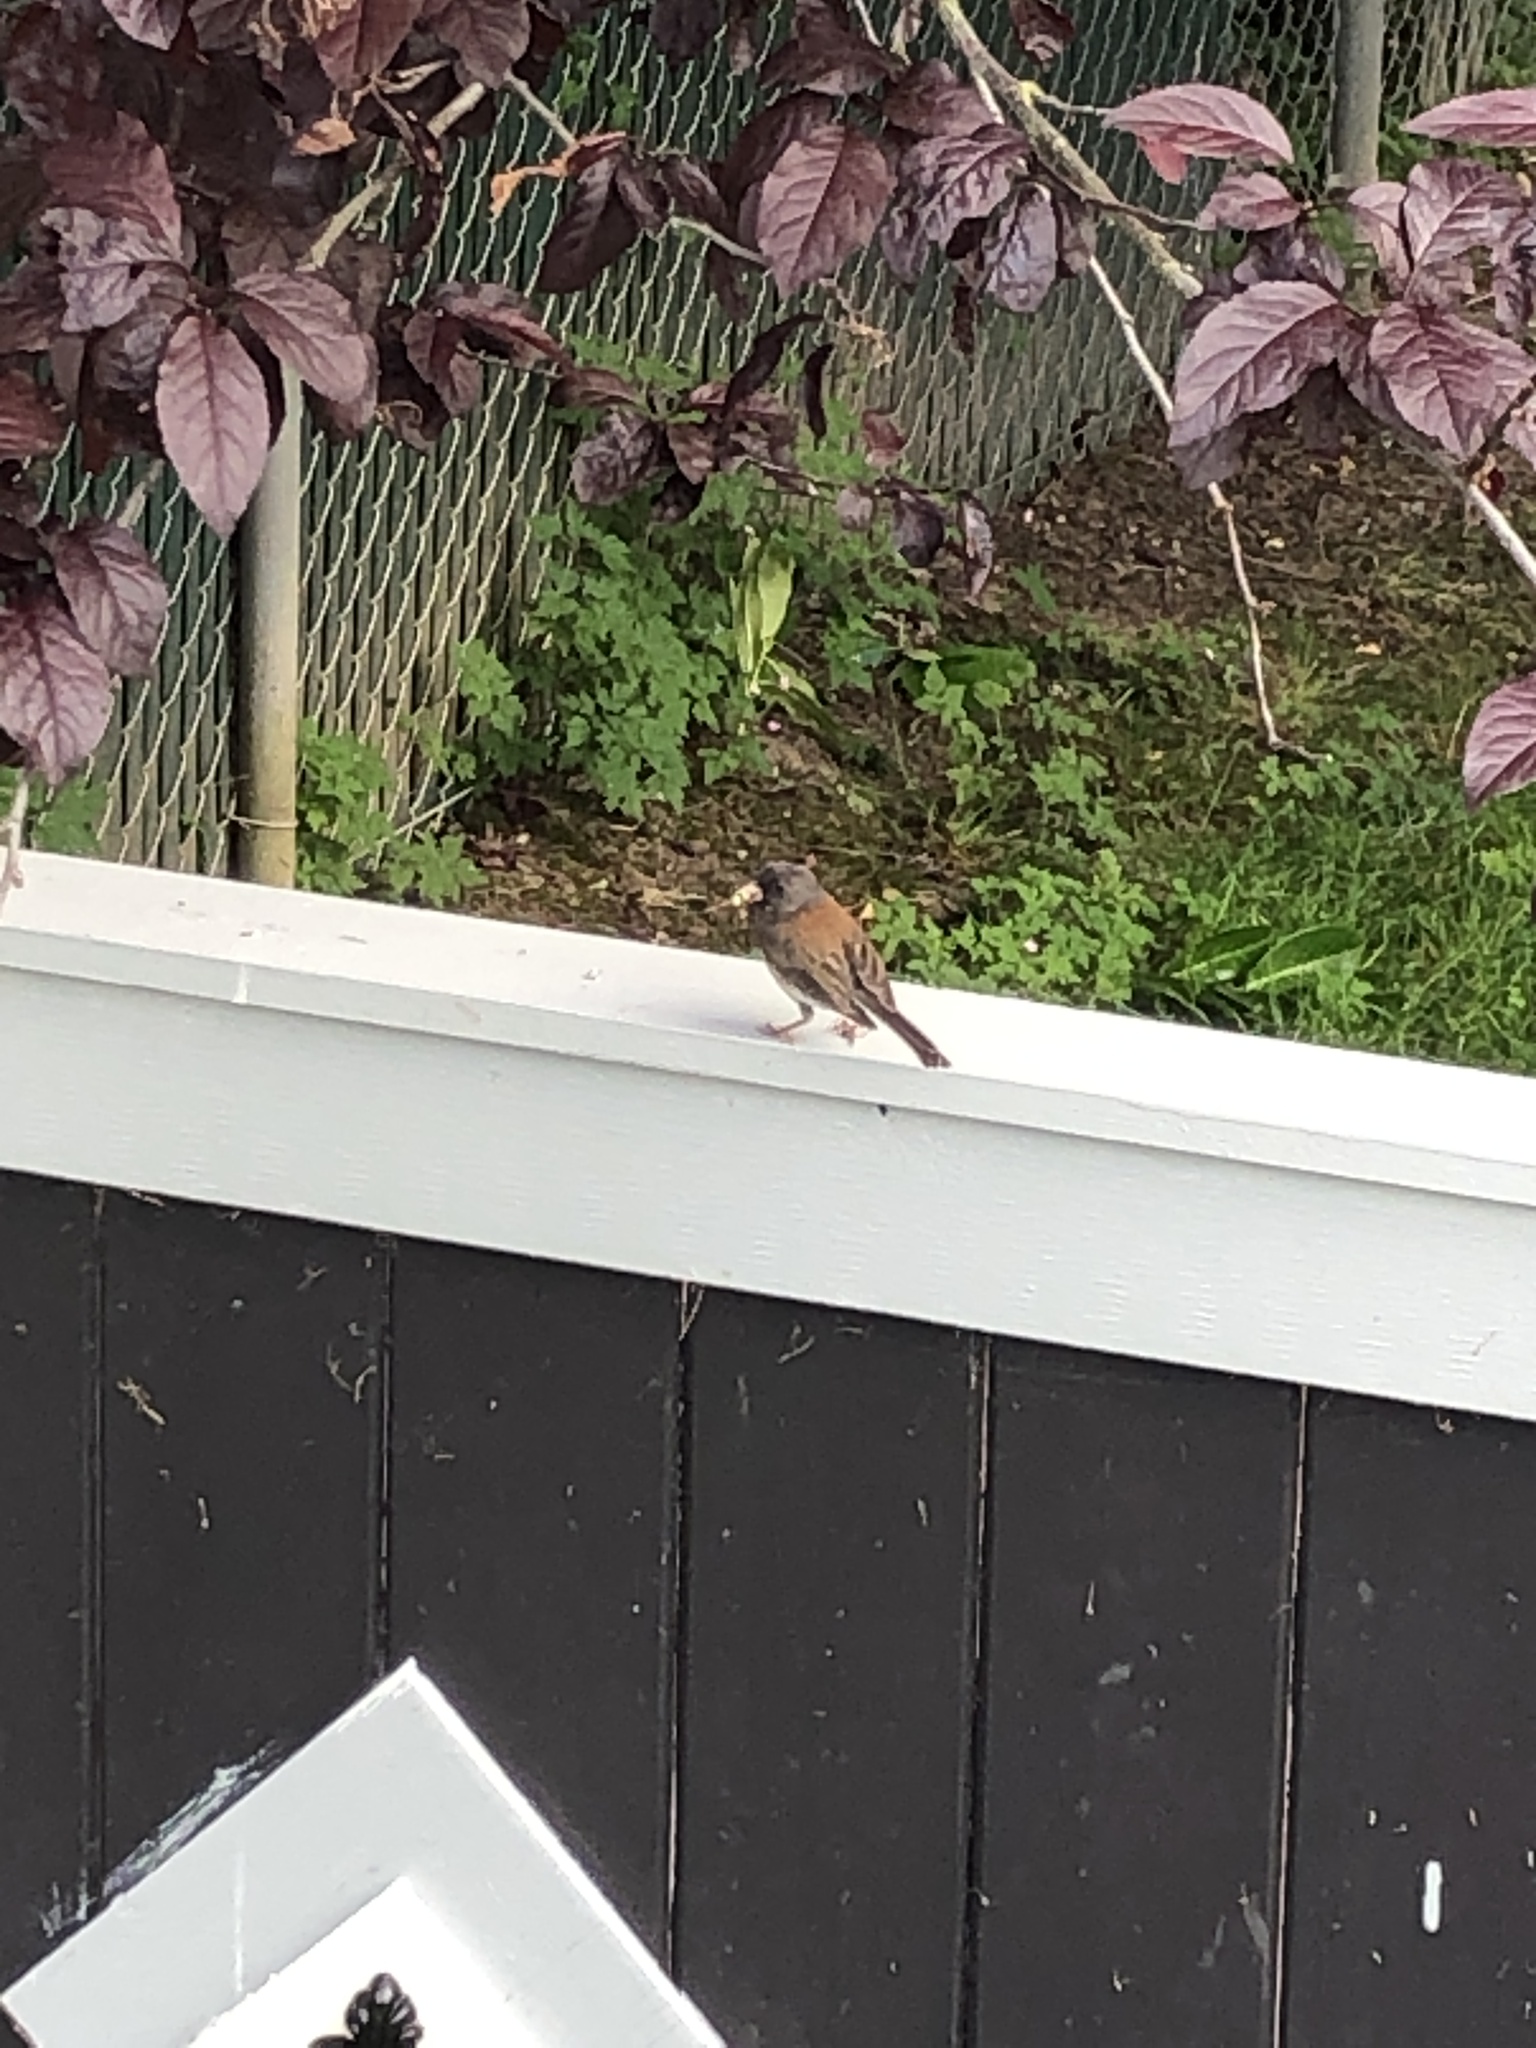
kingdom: Animalia
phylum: Chordata
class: Aves
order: Passeriformes
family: Passerellidae
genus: Junco
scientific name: Junco hyemalis
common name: Dark-eyed junco
